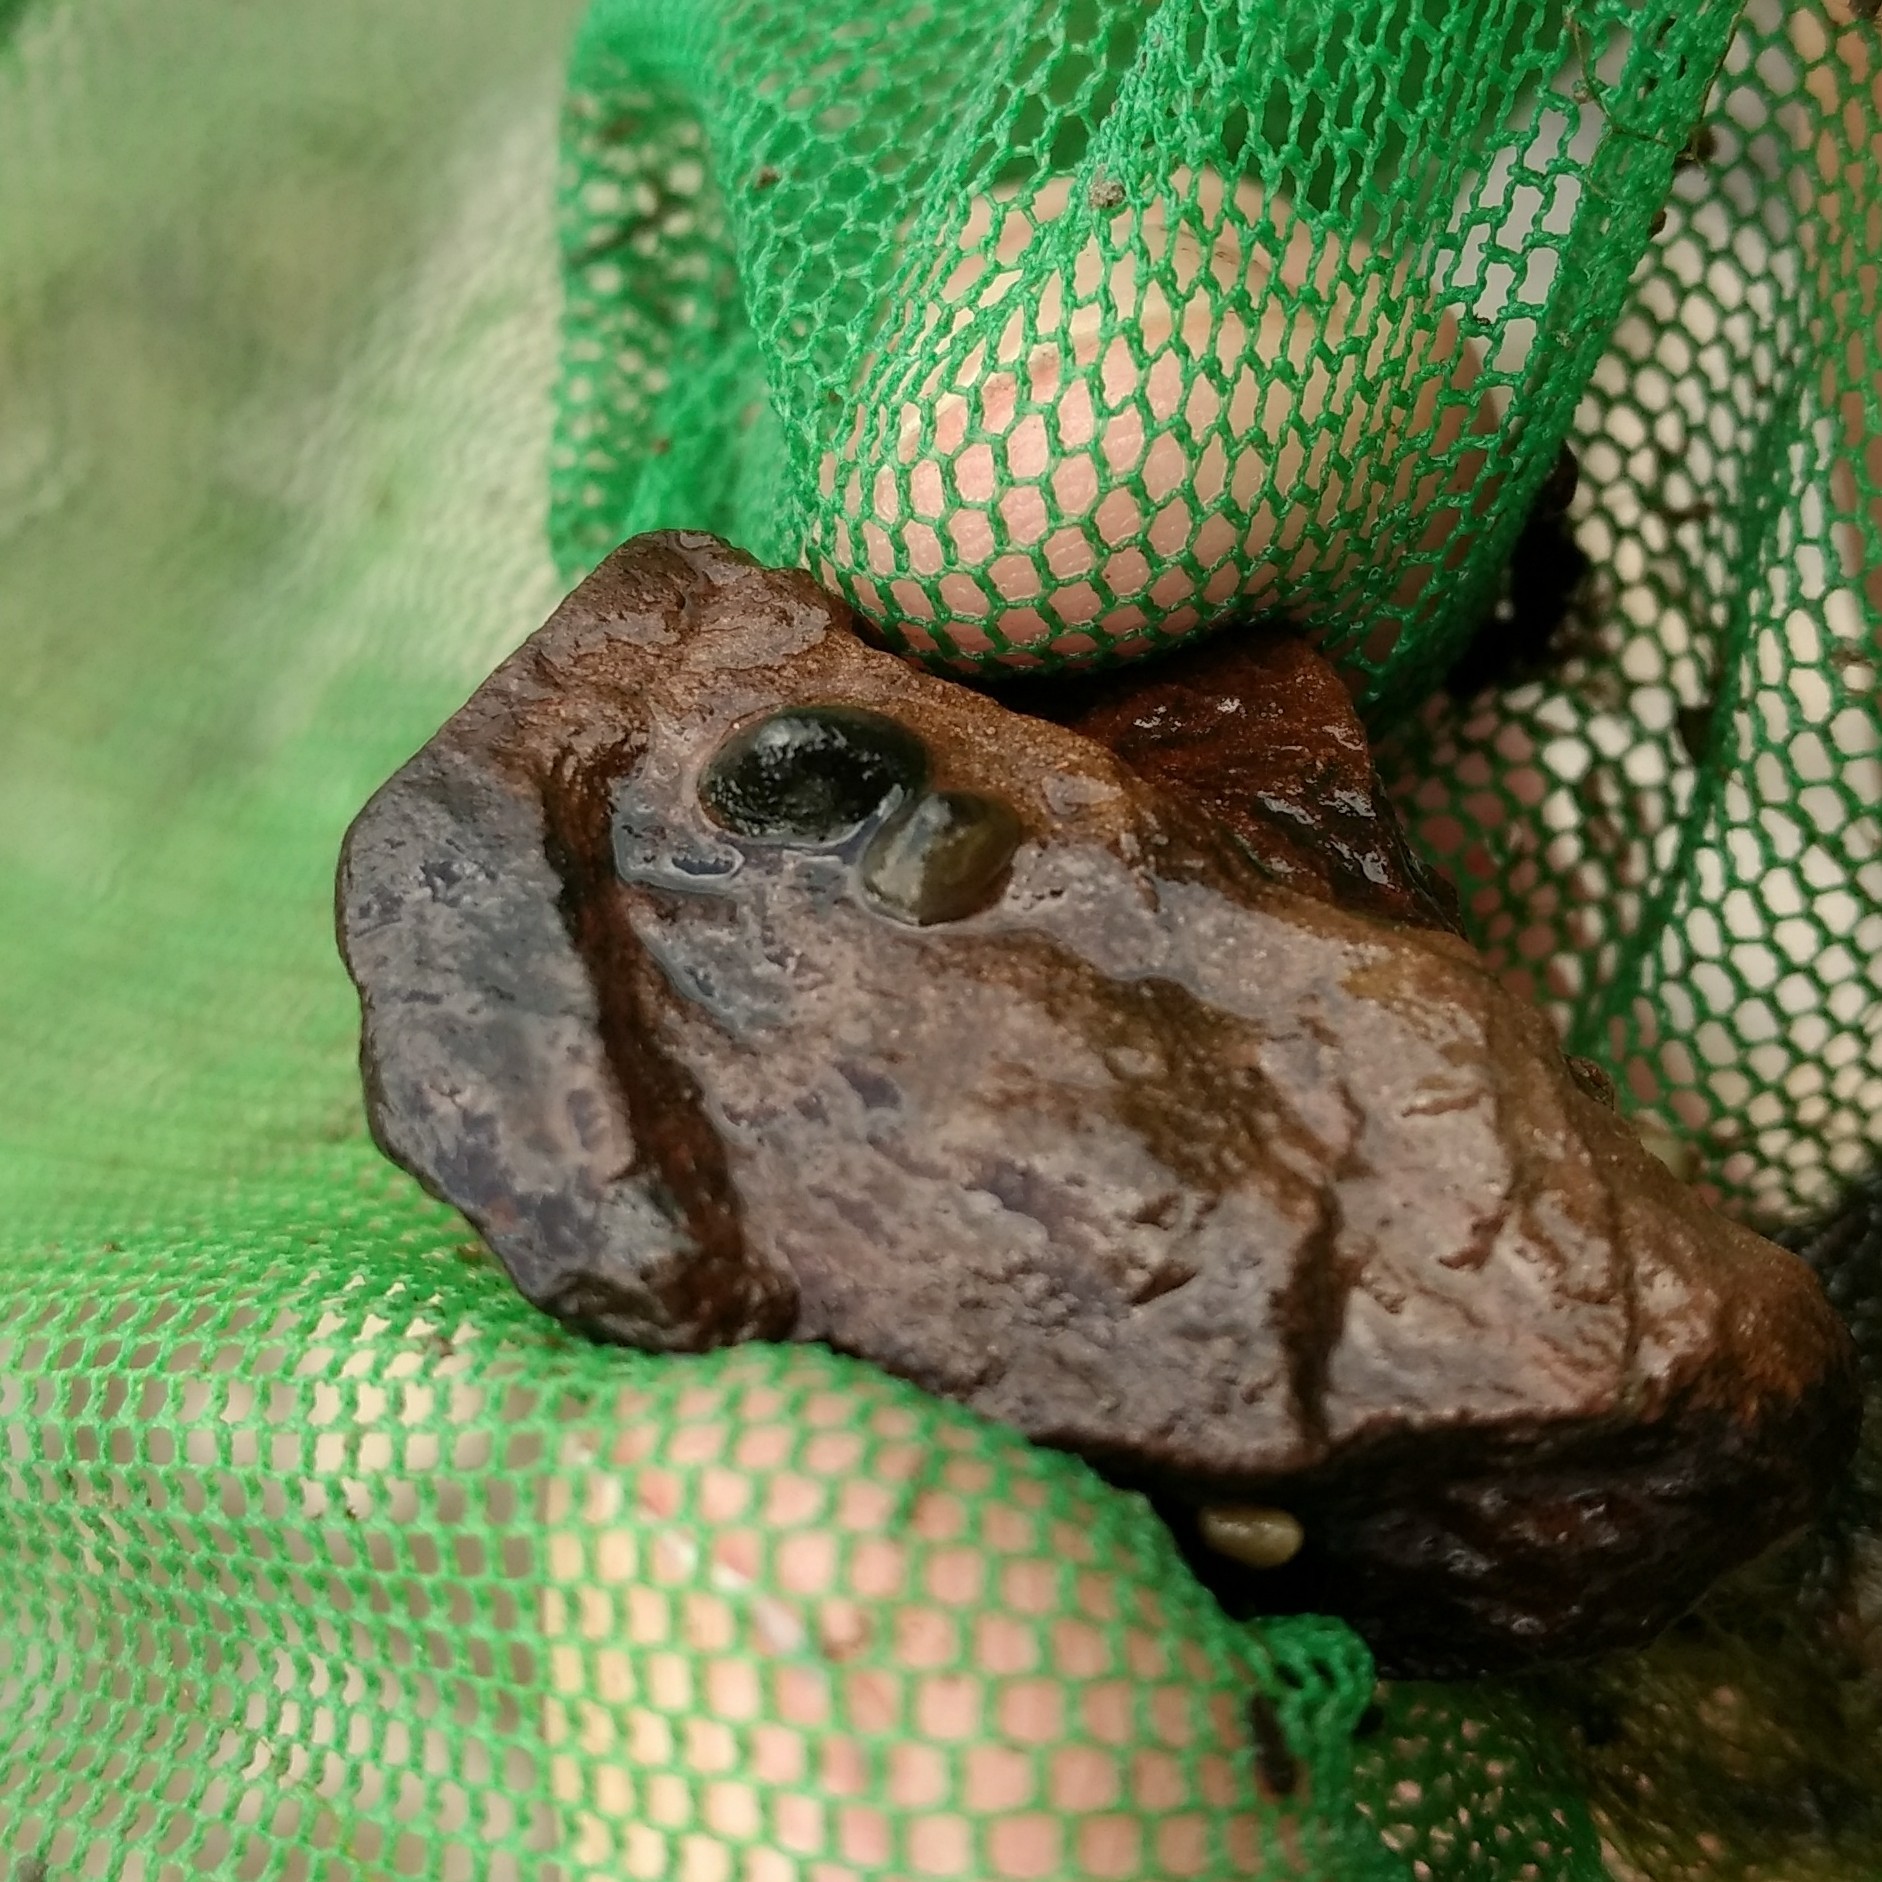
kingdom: Animalia
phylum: Mollusca
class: Gastropoda
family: Planorbidae
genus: Ferrissia
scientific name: Ferrissia californica
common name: Fragile ancylid
